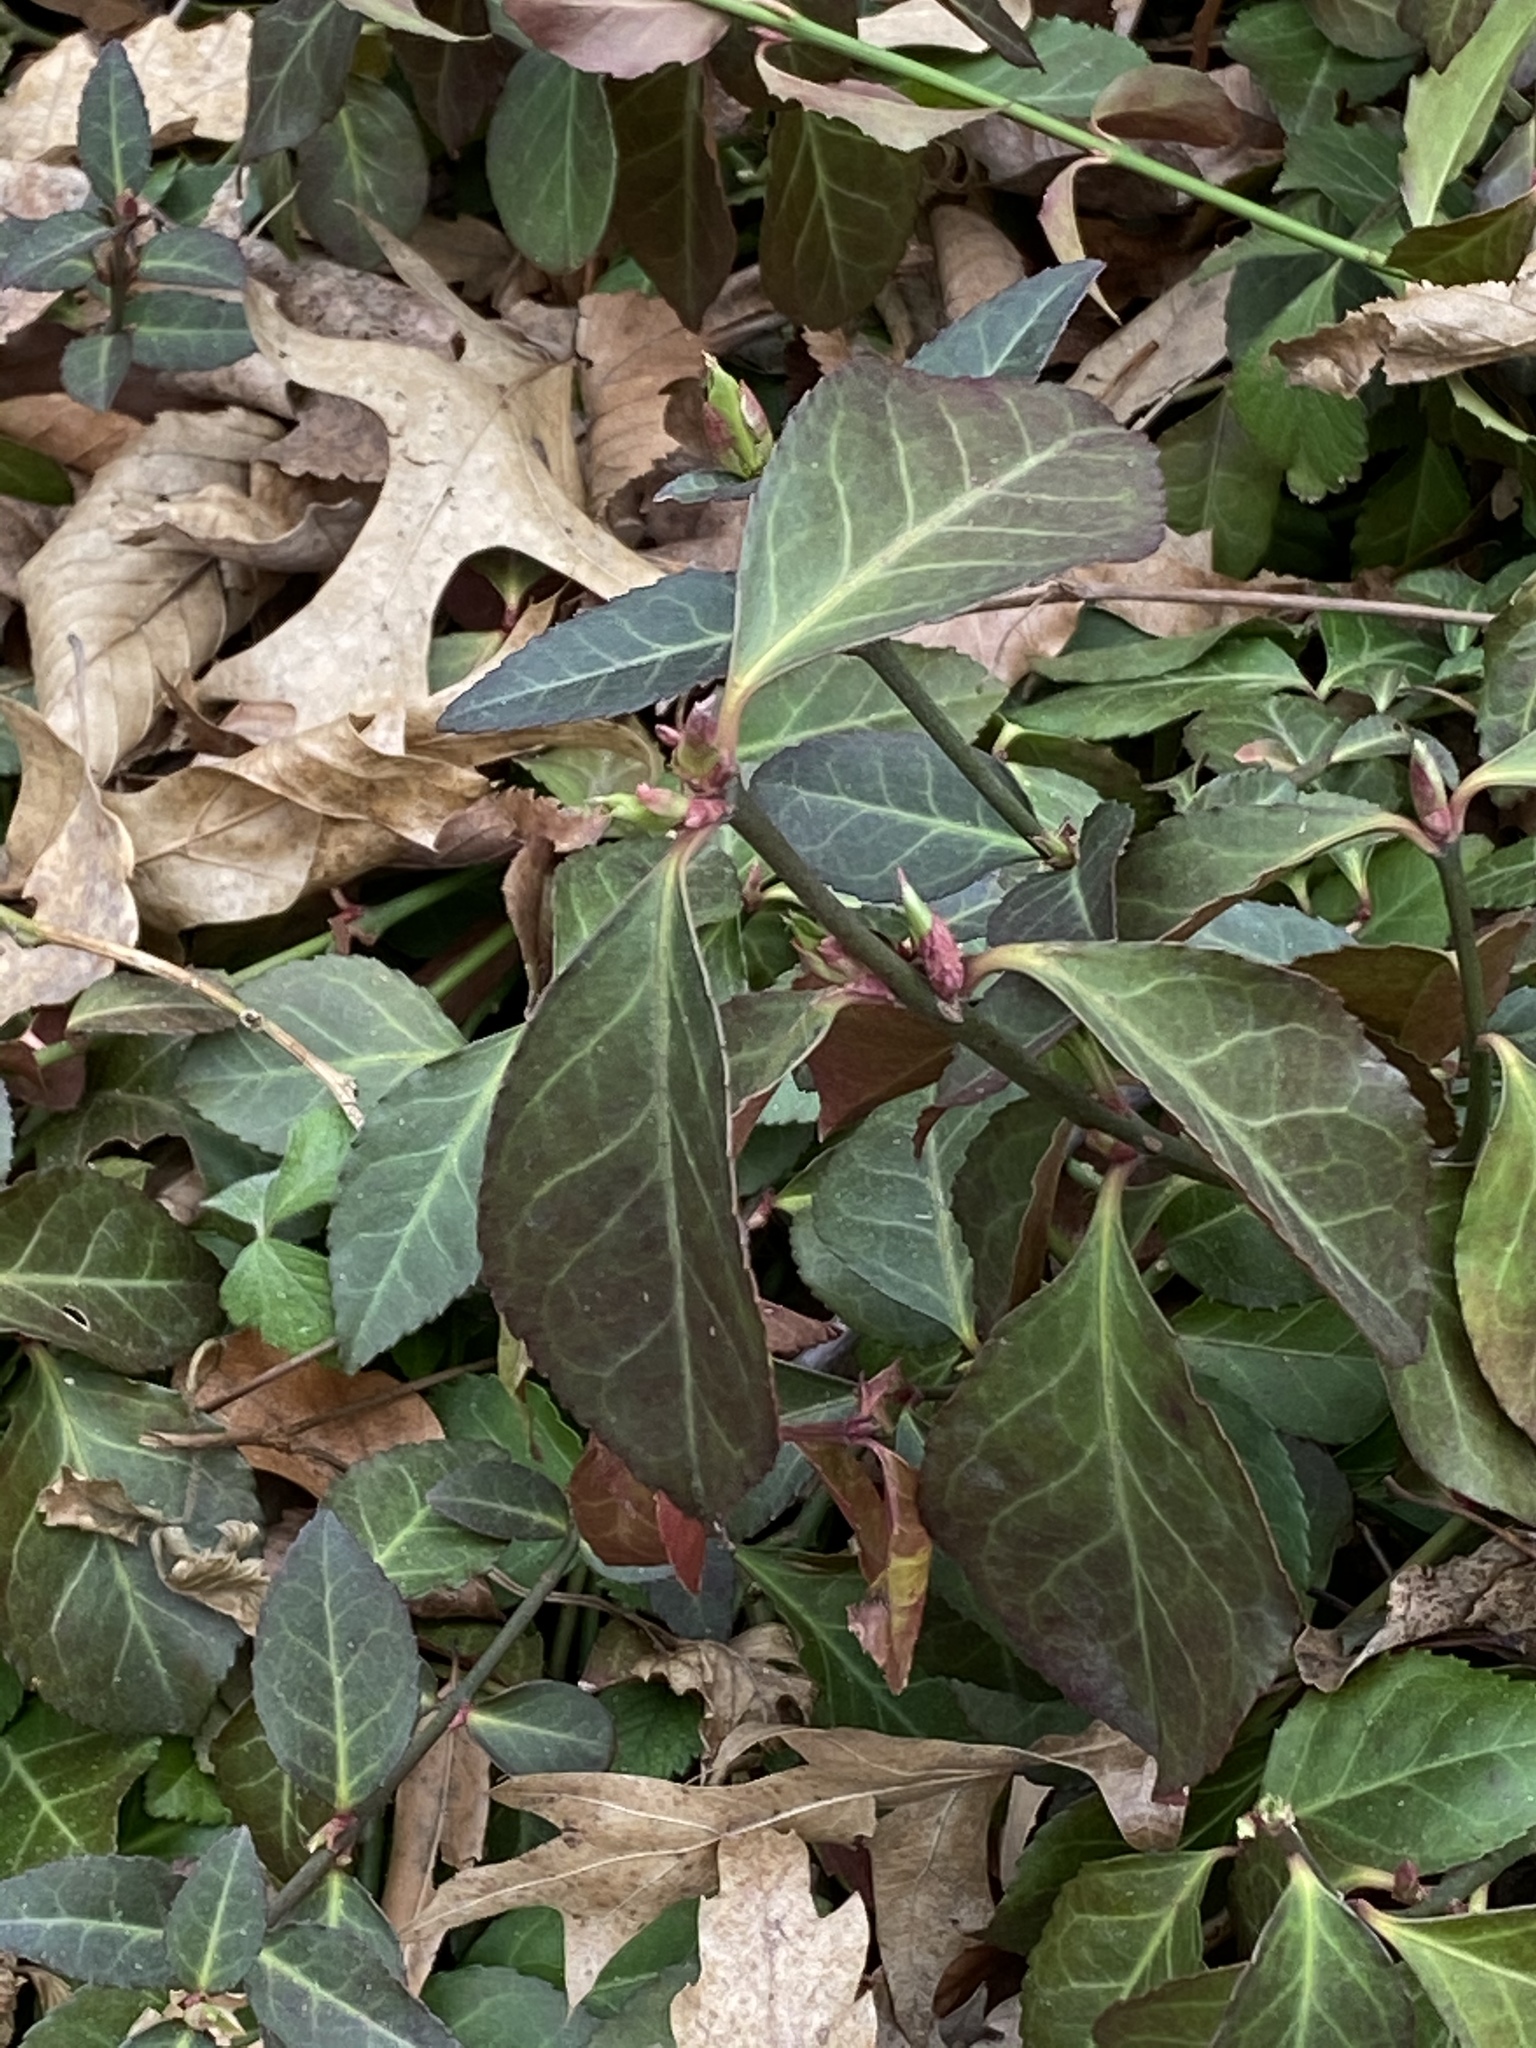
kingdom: Plantae
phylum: Tracheophyta
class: Magnoliopsida
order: Celastrales
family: Celastraceae
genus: Euonymus
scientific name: Euonymus fortunei
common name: Climbing euonymus
